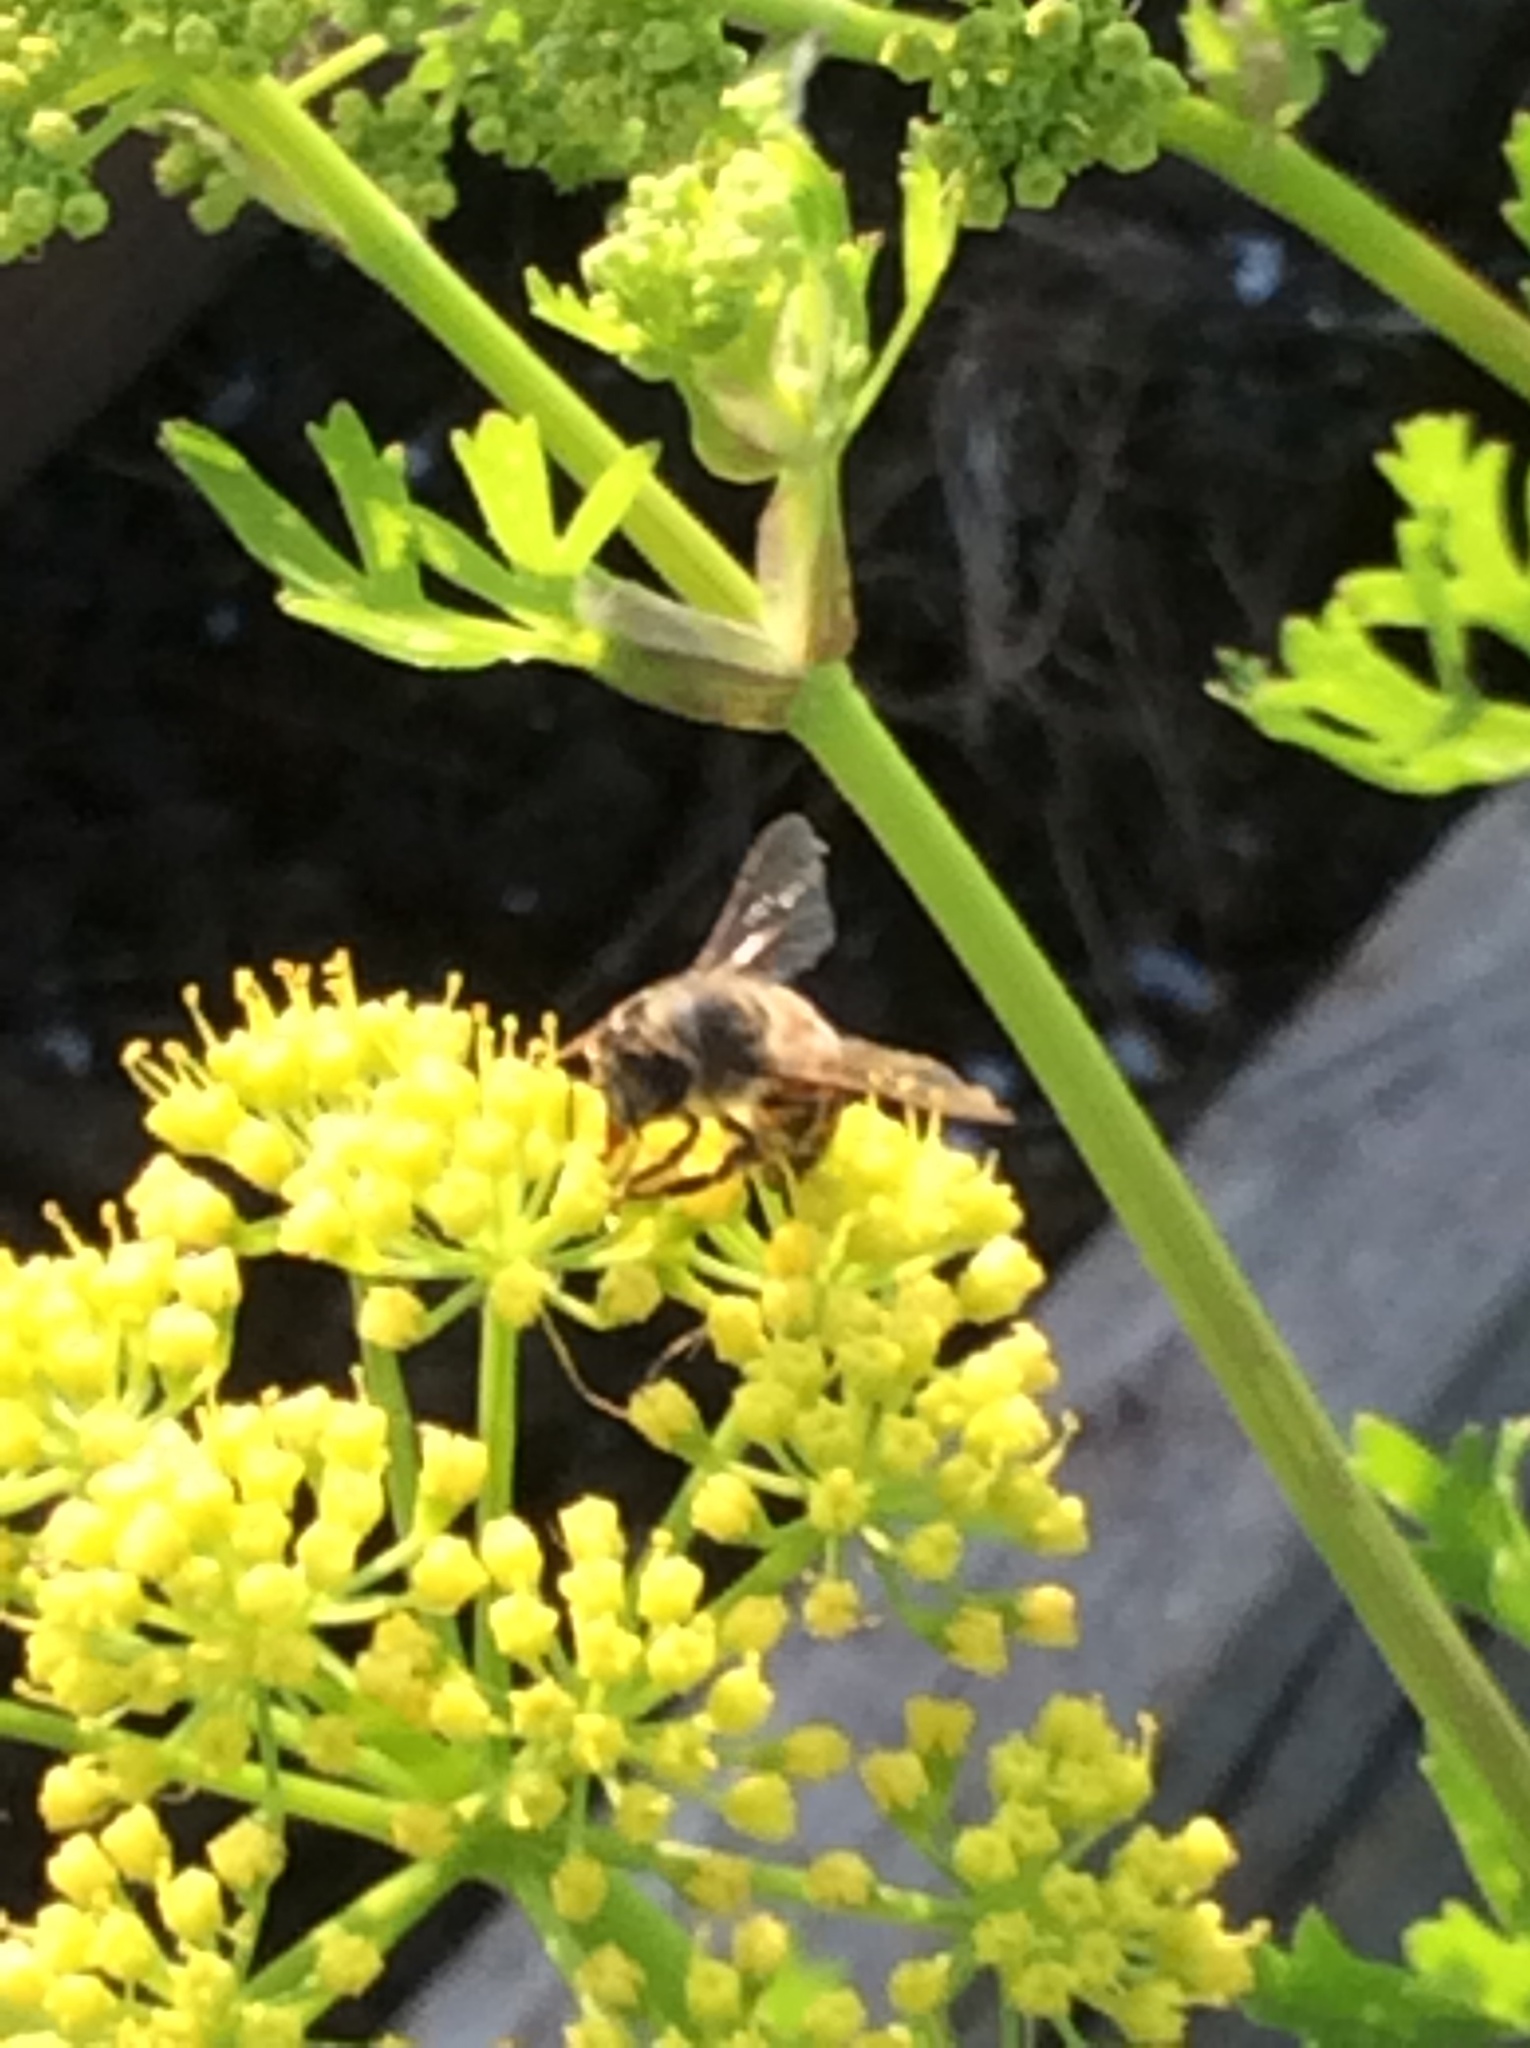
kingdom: Animalia
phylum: Arthropoda
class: Insecta
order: Hymenoptera
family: Apidae
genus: Apis
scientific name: Apis mellifera
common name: Honey bee
